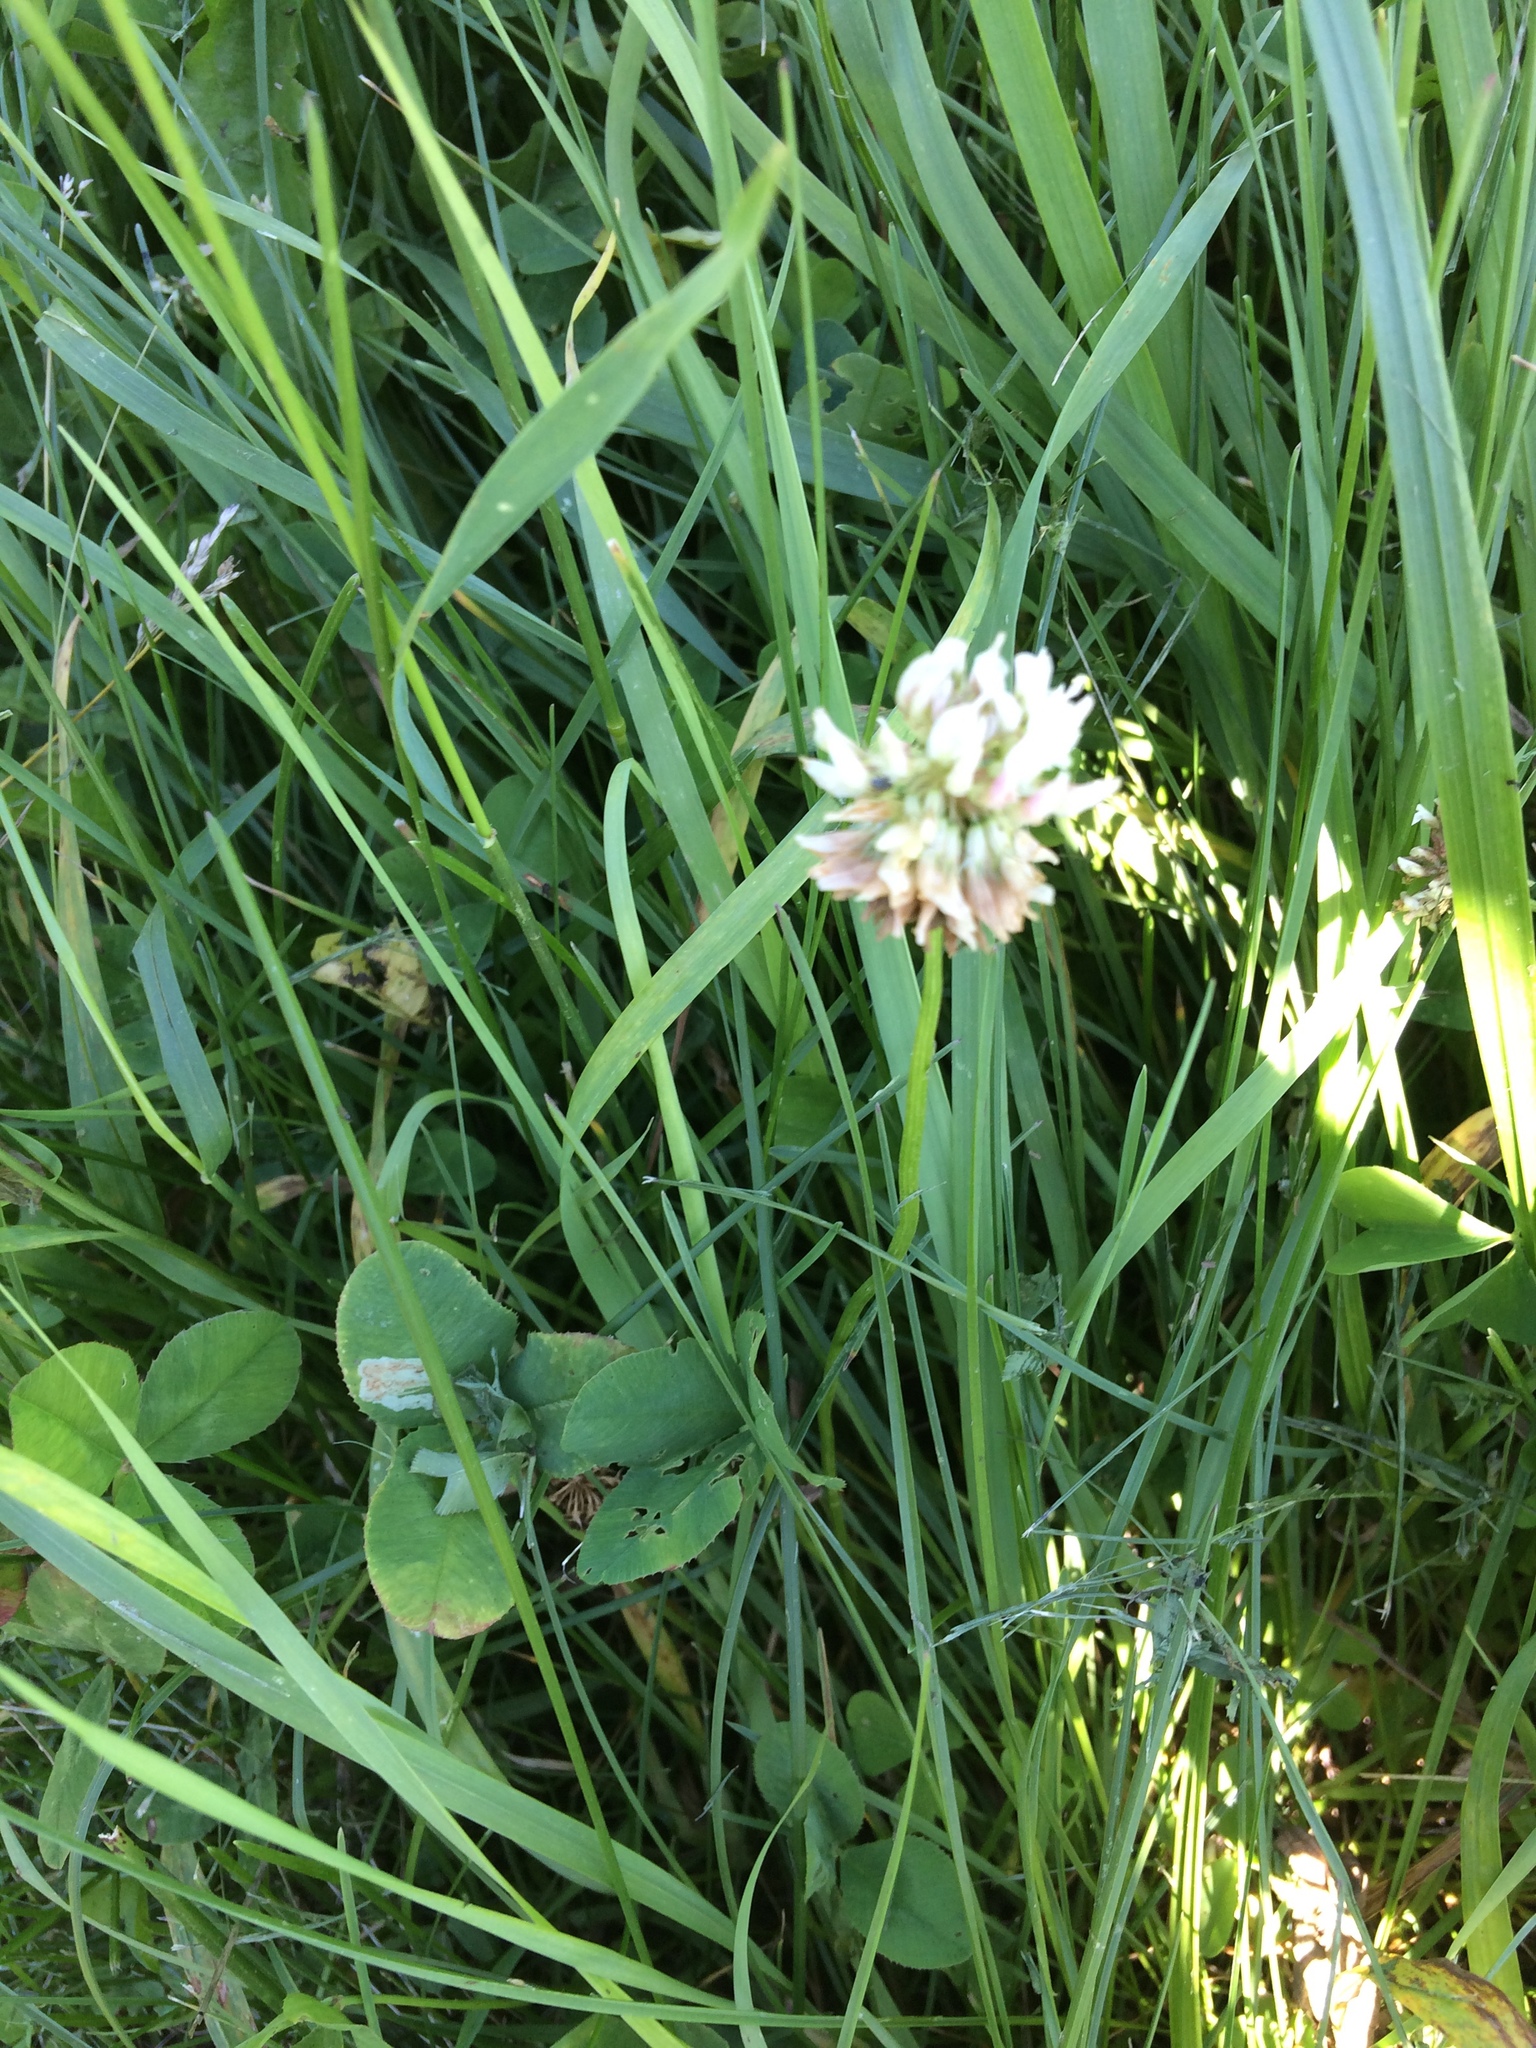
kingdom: Plantae
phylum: Tracheophyta
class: Magnoliopsida
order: Fabales
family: Fabaceae
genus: Trifolium
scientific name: Trifolium repens
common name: White clover
